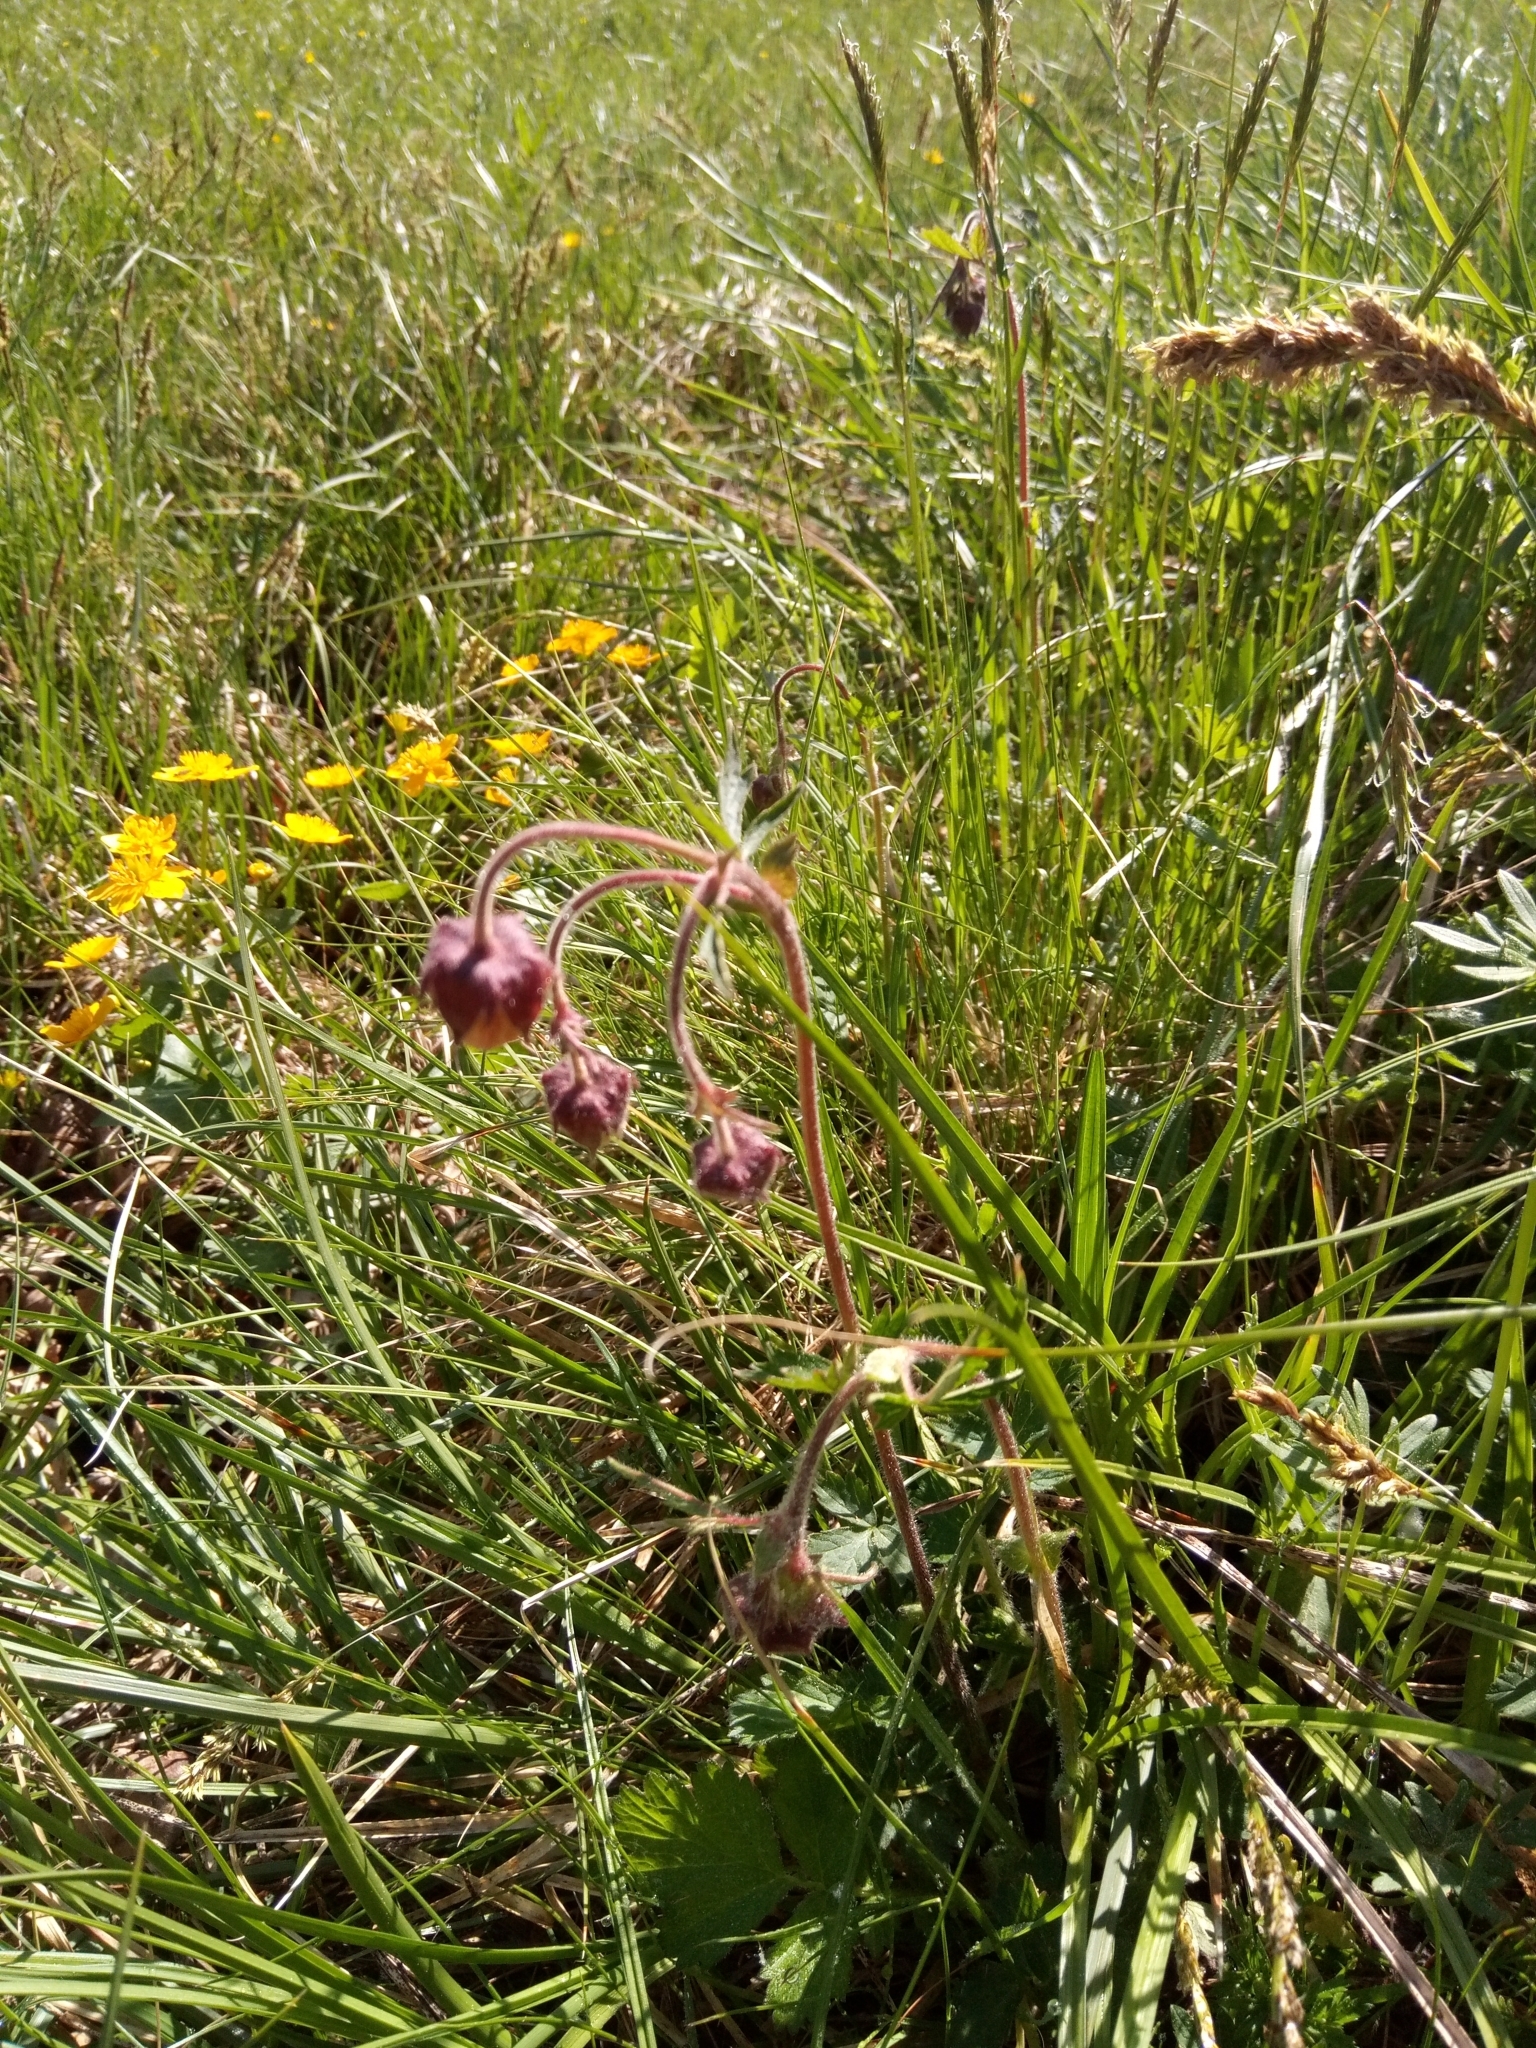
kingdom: Plantae
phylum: Tracheophyta
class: Magnoliopsida
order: Rosales
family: Rosaceae
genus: Geum
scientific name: Geum rivale
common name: Water avens
